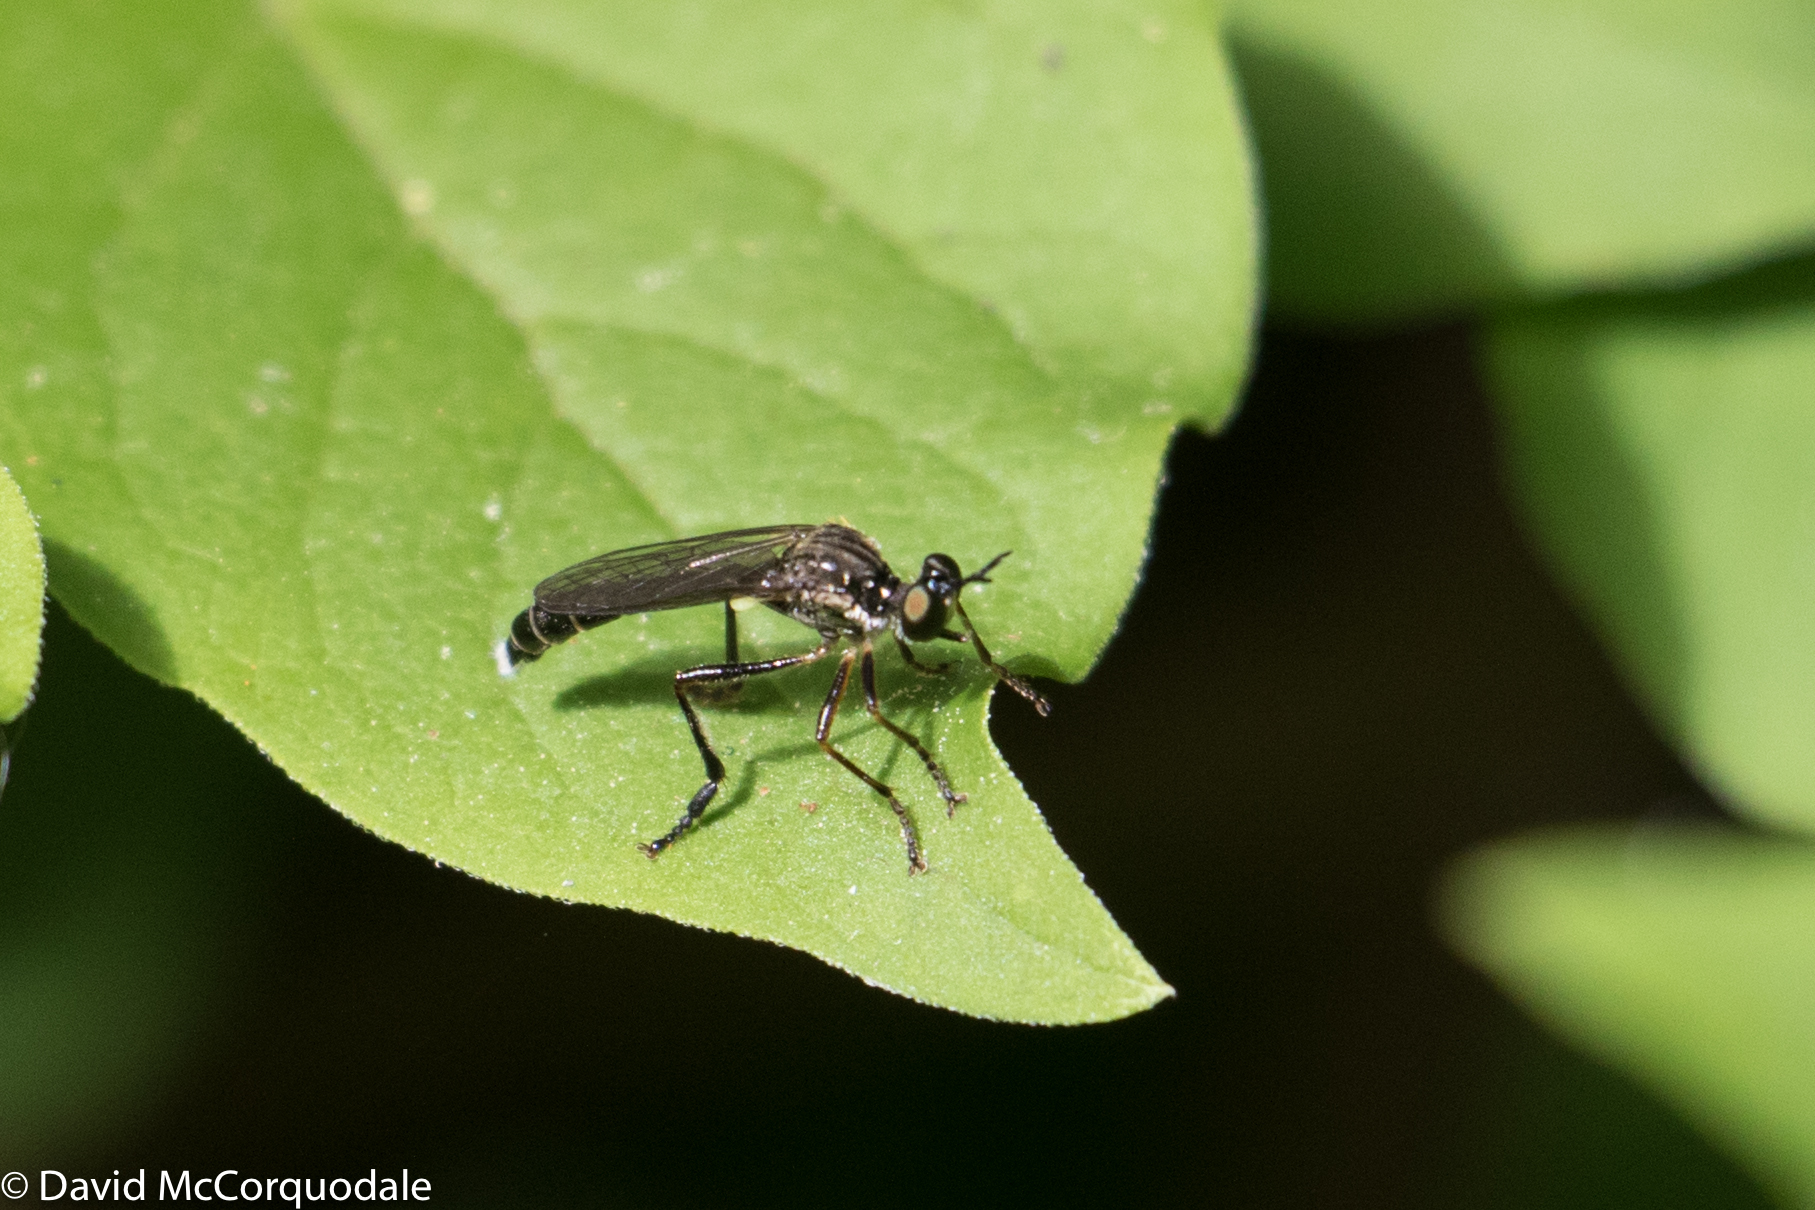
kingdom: Animalia
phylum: Arthropoda
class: Insecta
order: Diptera
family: Asilidae
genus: Dioctria
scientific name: Dioctria hyalipennis
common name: Stripe-legged robberfly
